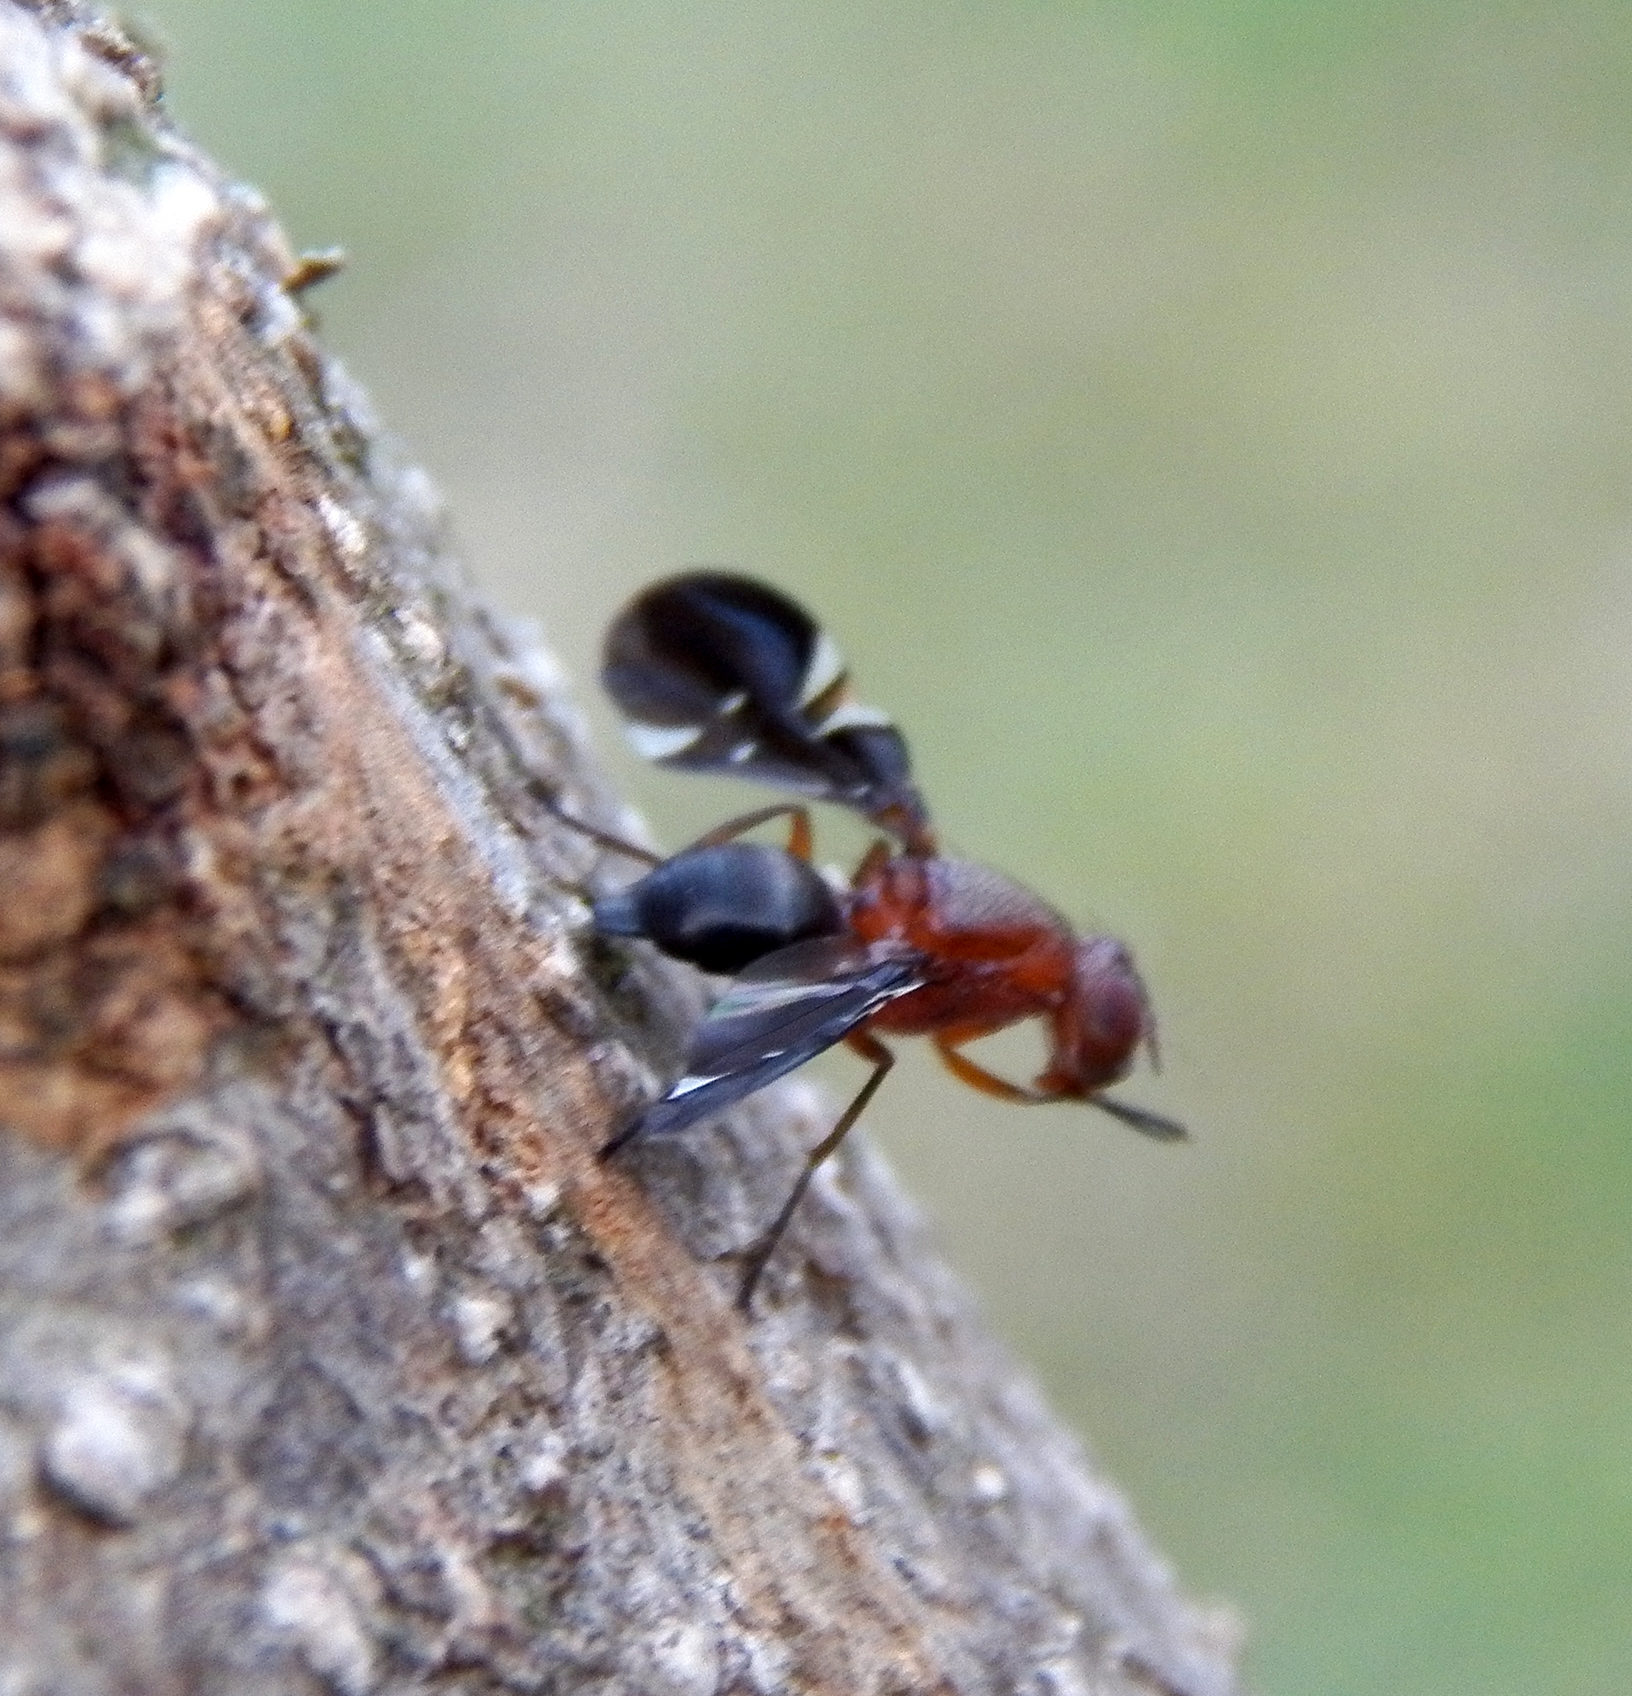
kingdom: Animalia
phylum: Arthropoda
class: Insecta
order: Diptera
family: Ulidiidae
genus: Delphinia
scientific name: Delphinia picta
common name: Common picture-winged fly
